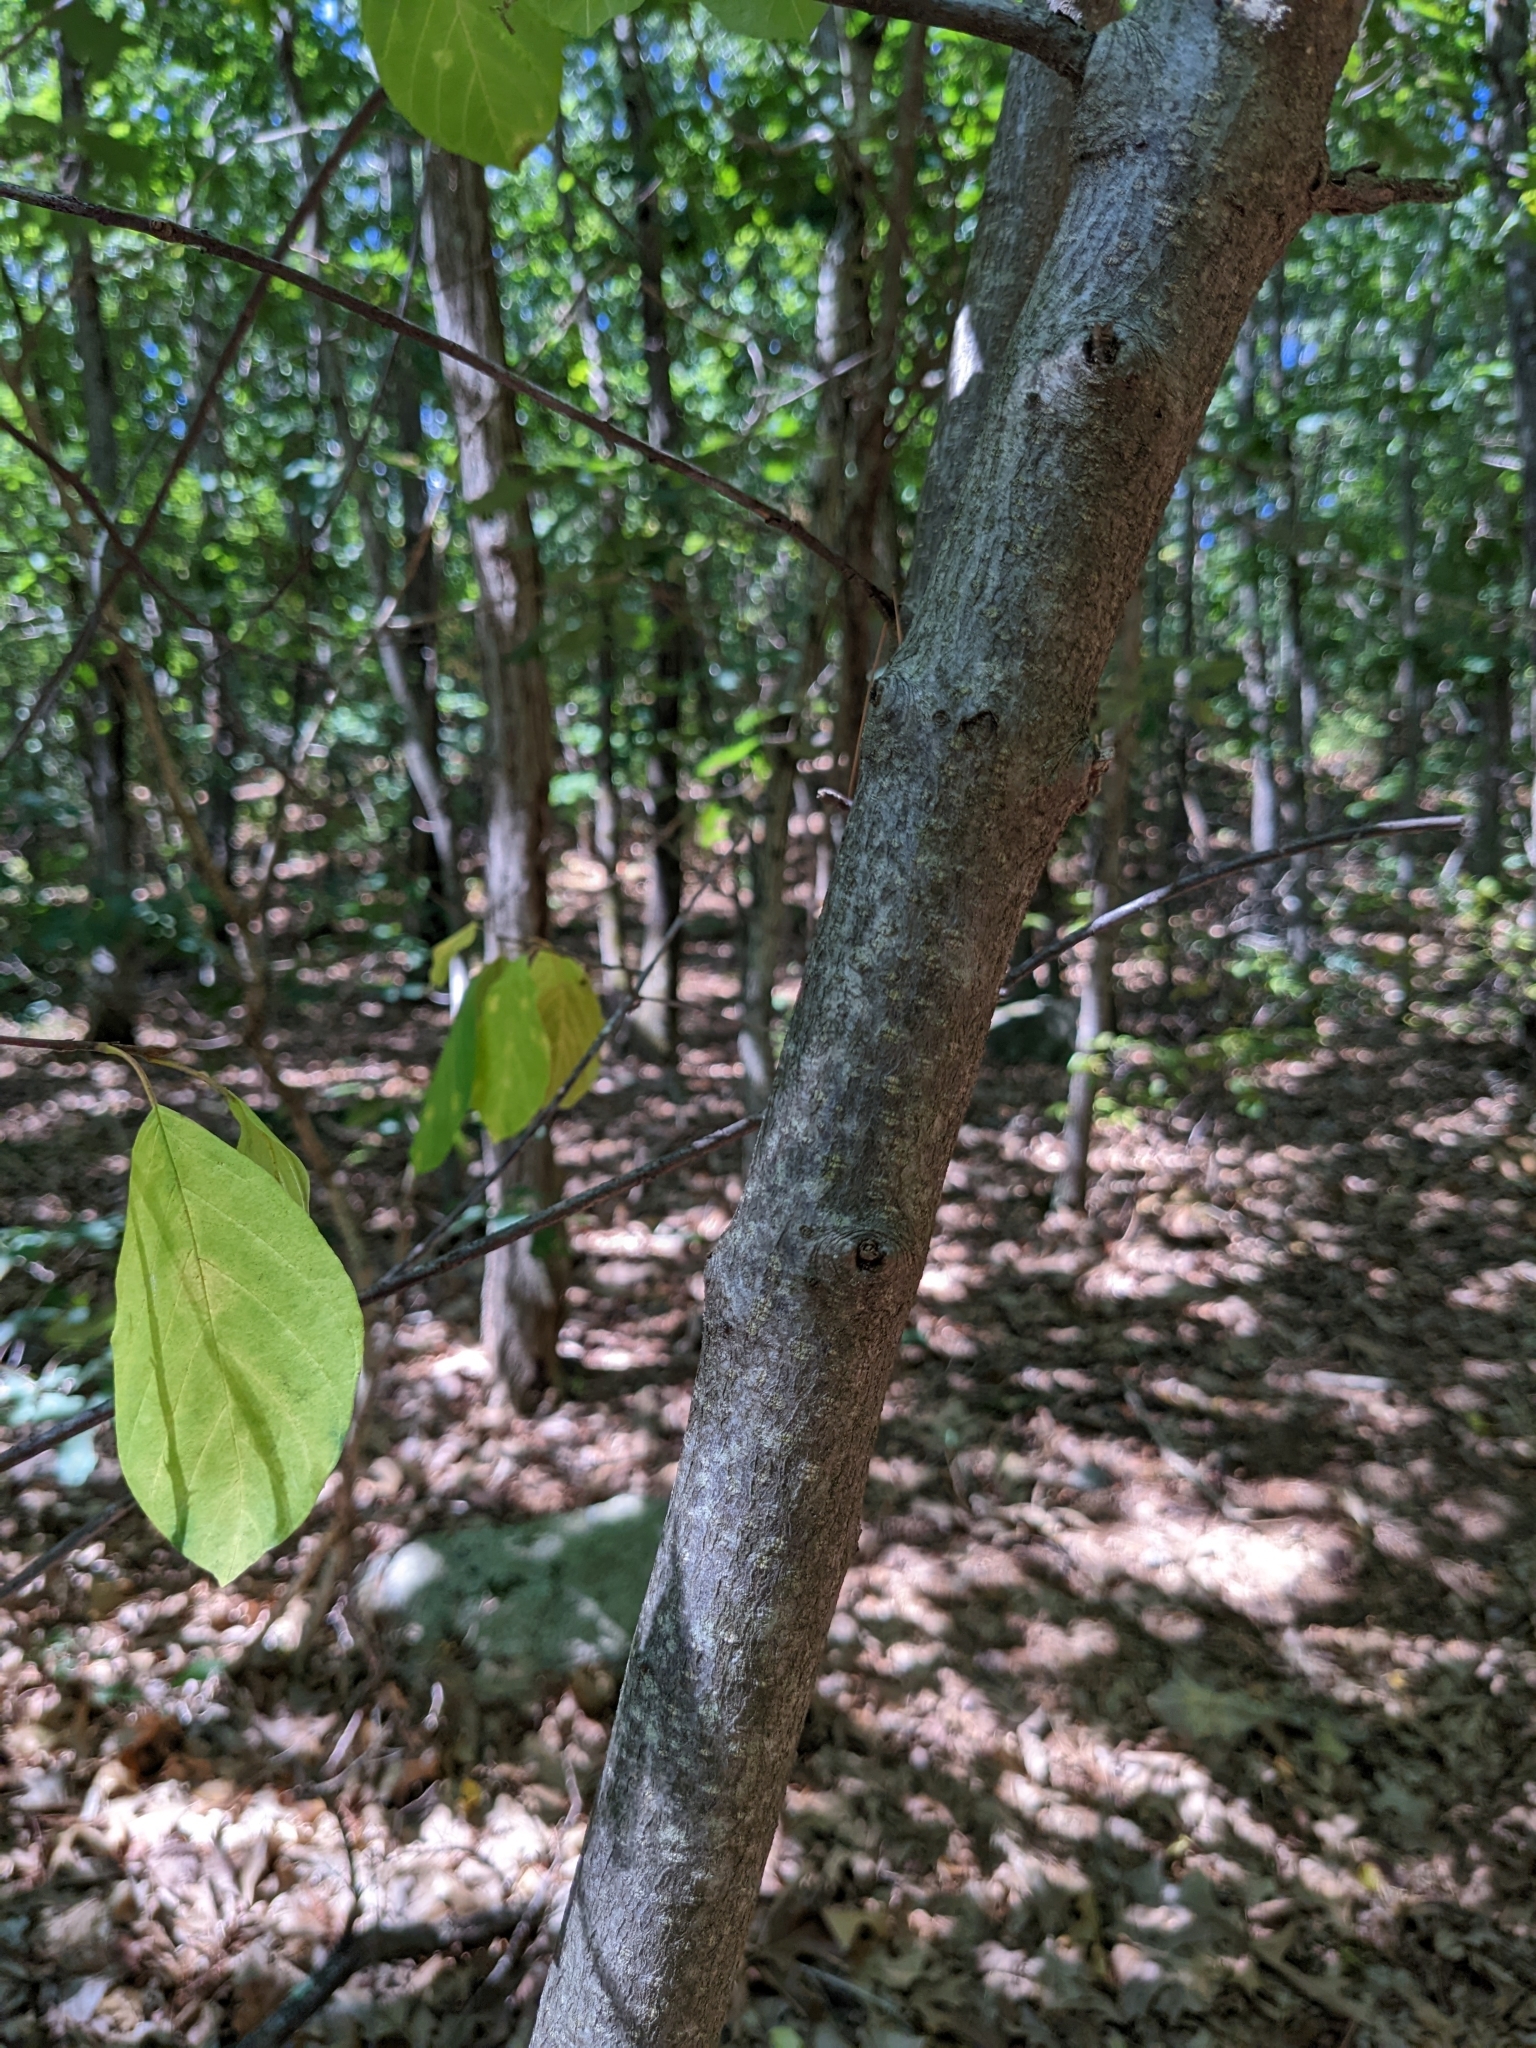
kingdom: Plantae
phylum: Tracheophyta
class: Magnoliopsida
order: Rosales
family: Rhamnaceae
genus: Frangula
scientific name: Frangula alnus
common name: Alder buckthorn
